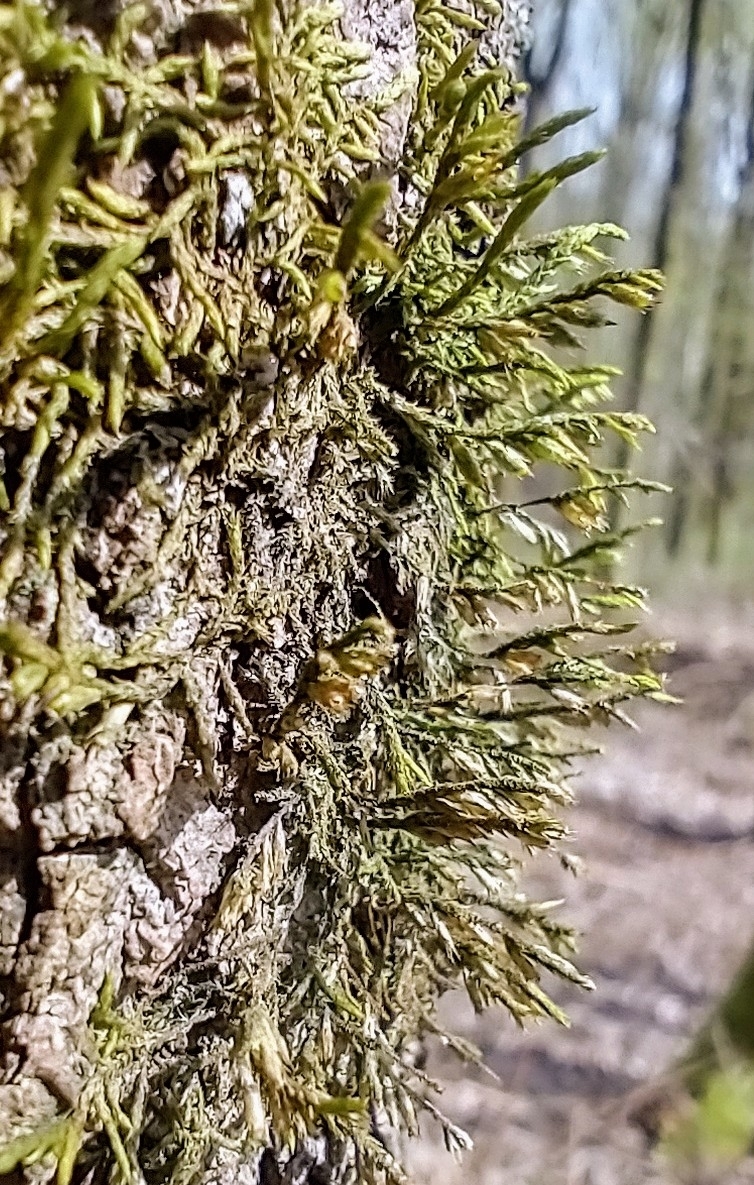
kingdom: Plantae
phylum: Bryophyta
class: Bryopsida
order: Hypnales
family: Cryphaeaceae
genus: Cryphaea
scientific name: Cryphaea heteromalla
